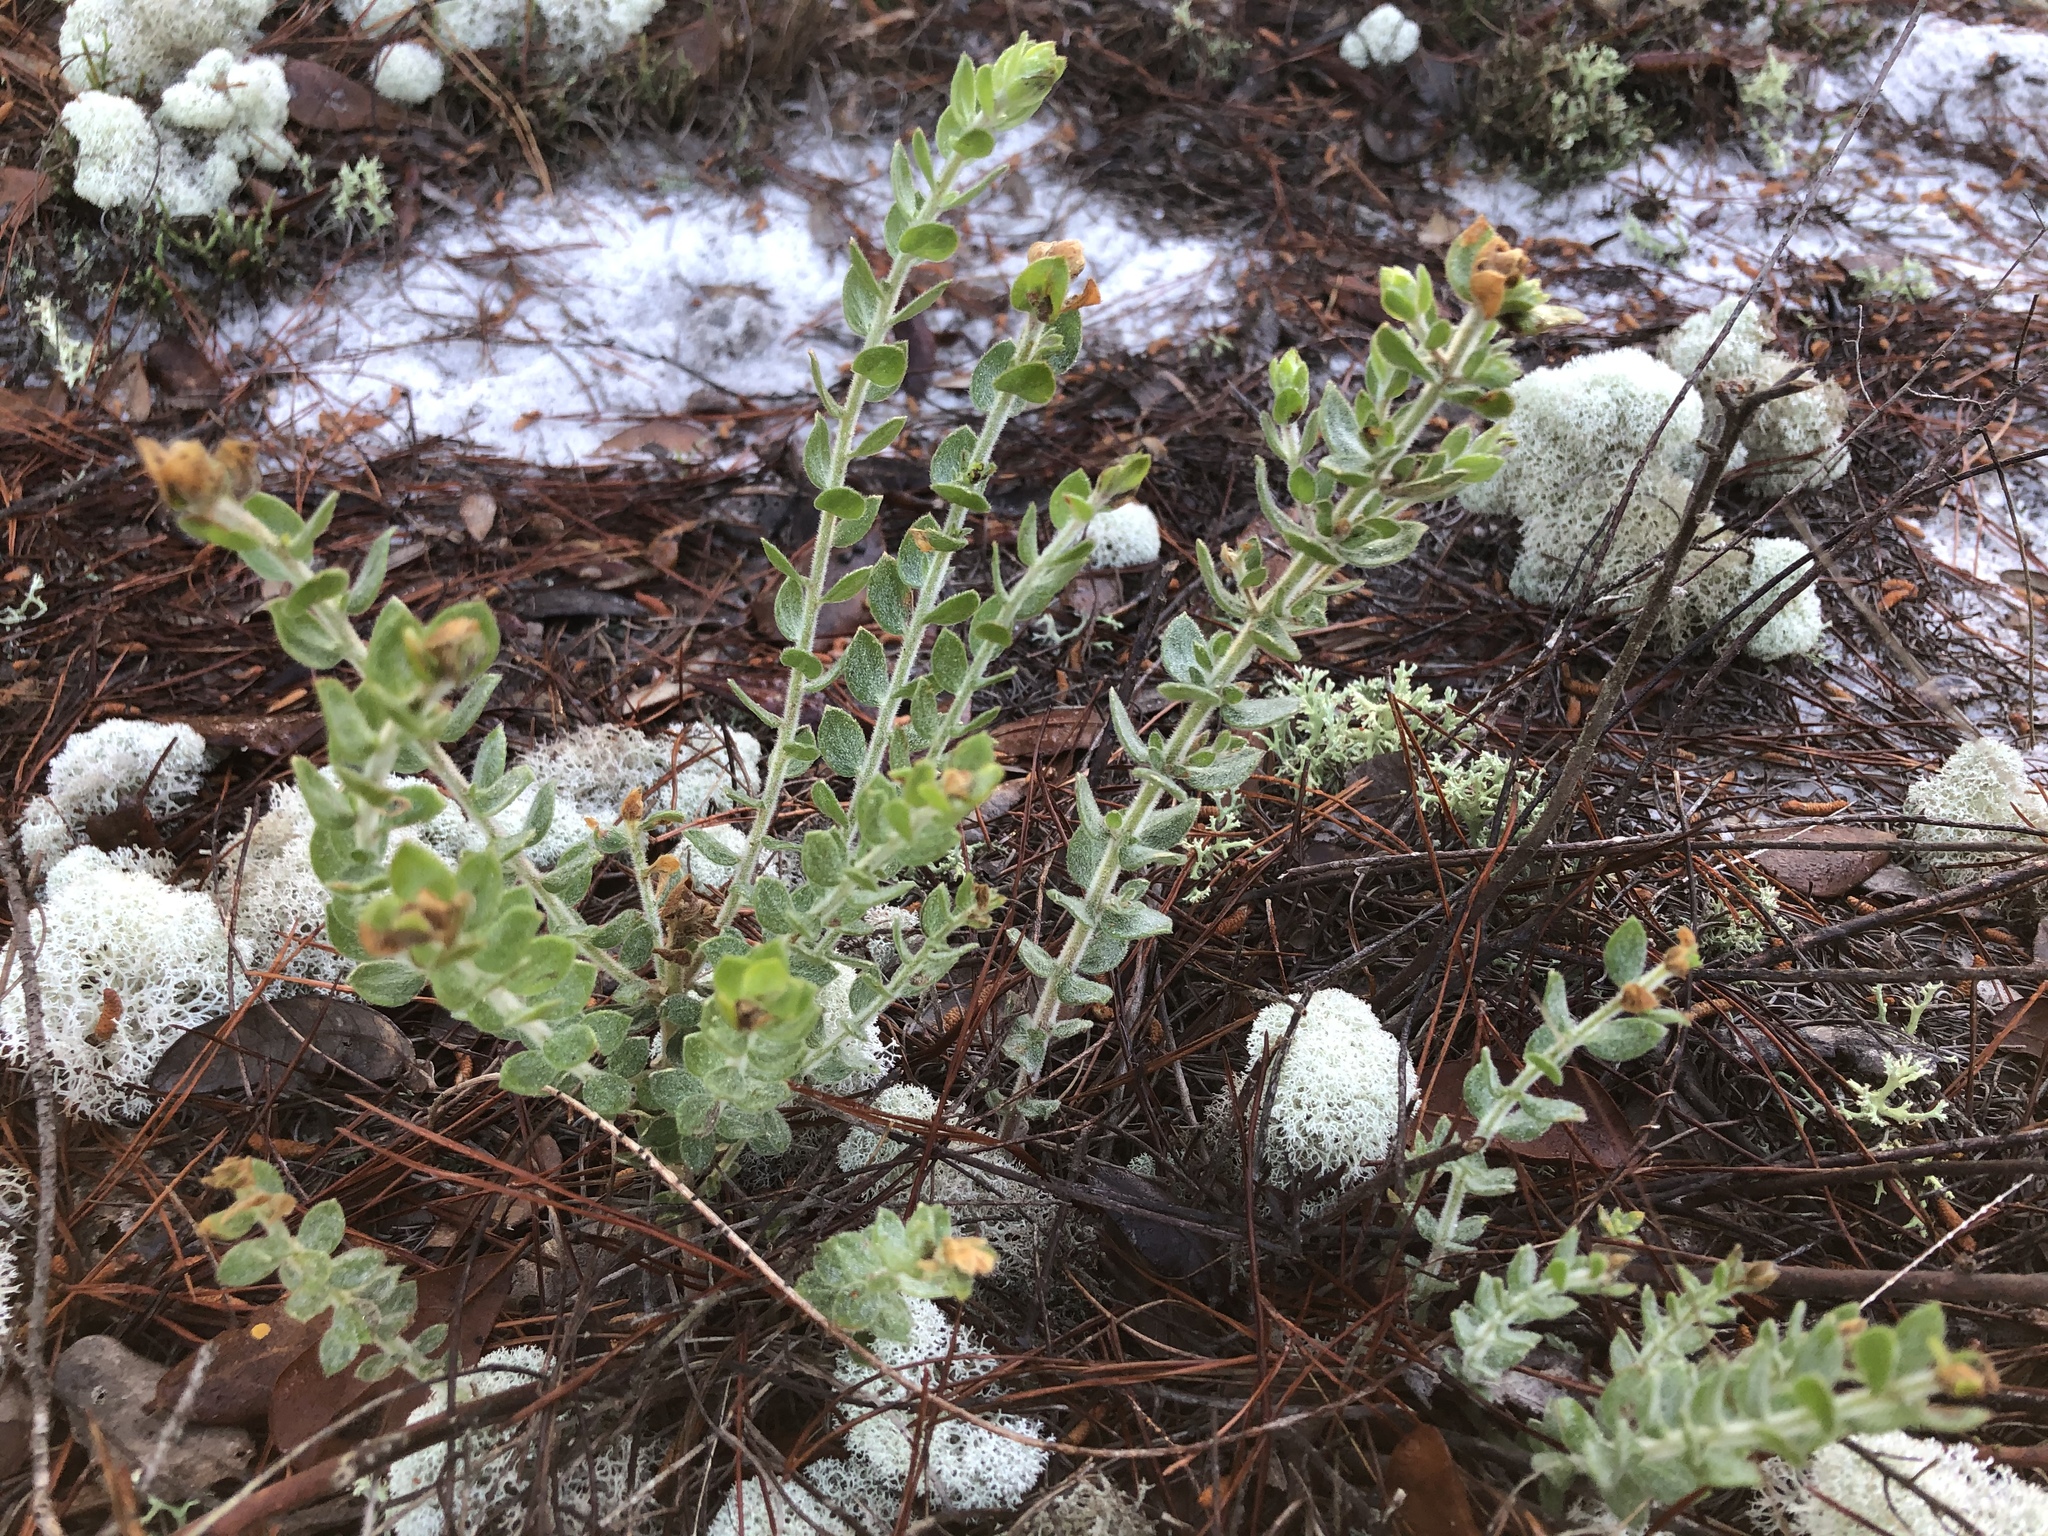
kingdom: Plantae
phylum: Tracheophyta
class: Magnoliopsida
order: Malvales
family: Cistaceae
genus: Lechea
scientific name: Lechea cernua
